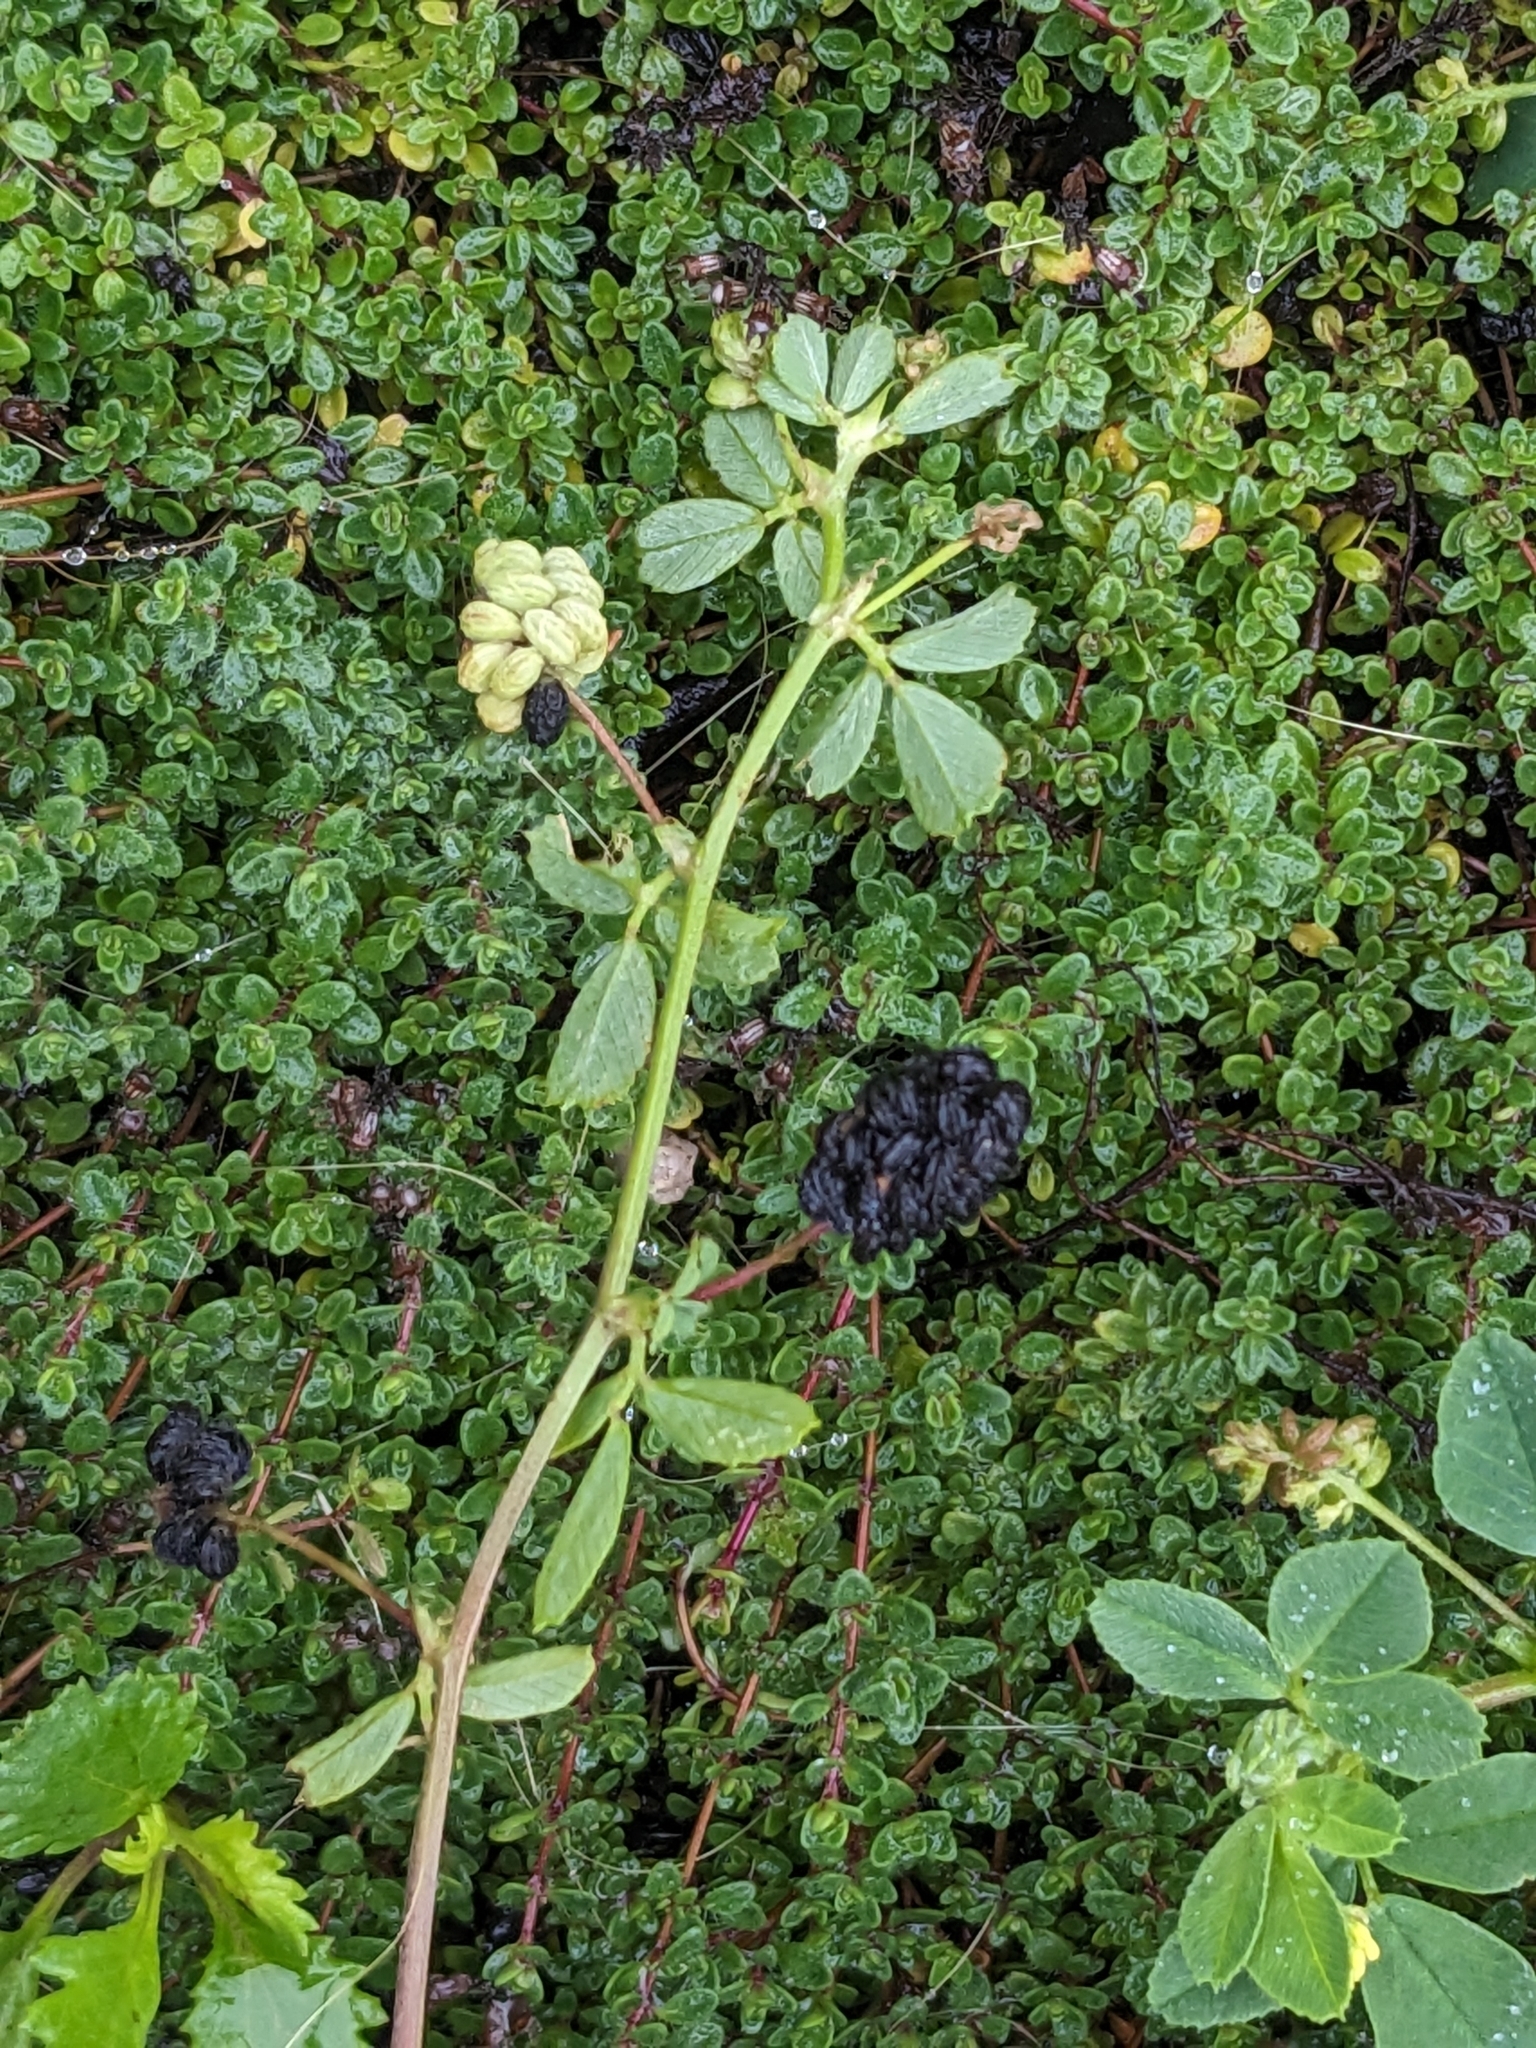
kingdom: Plantae
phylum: Tracheophyta
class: Magnoliopsida
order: Fabales
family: Fabaceae
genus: Medicago
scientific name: Medicago lupulina
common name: Black medick
